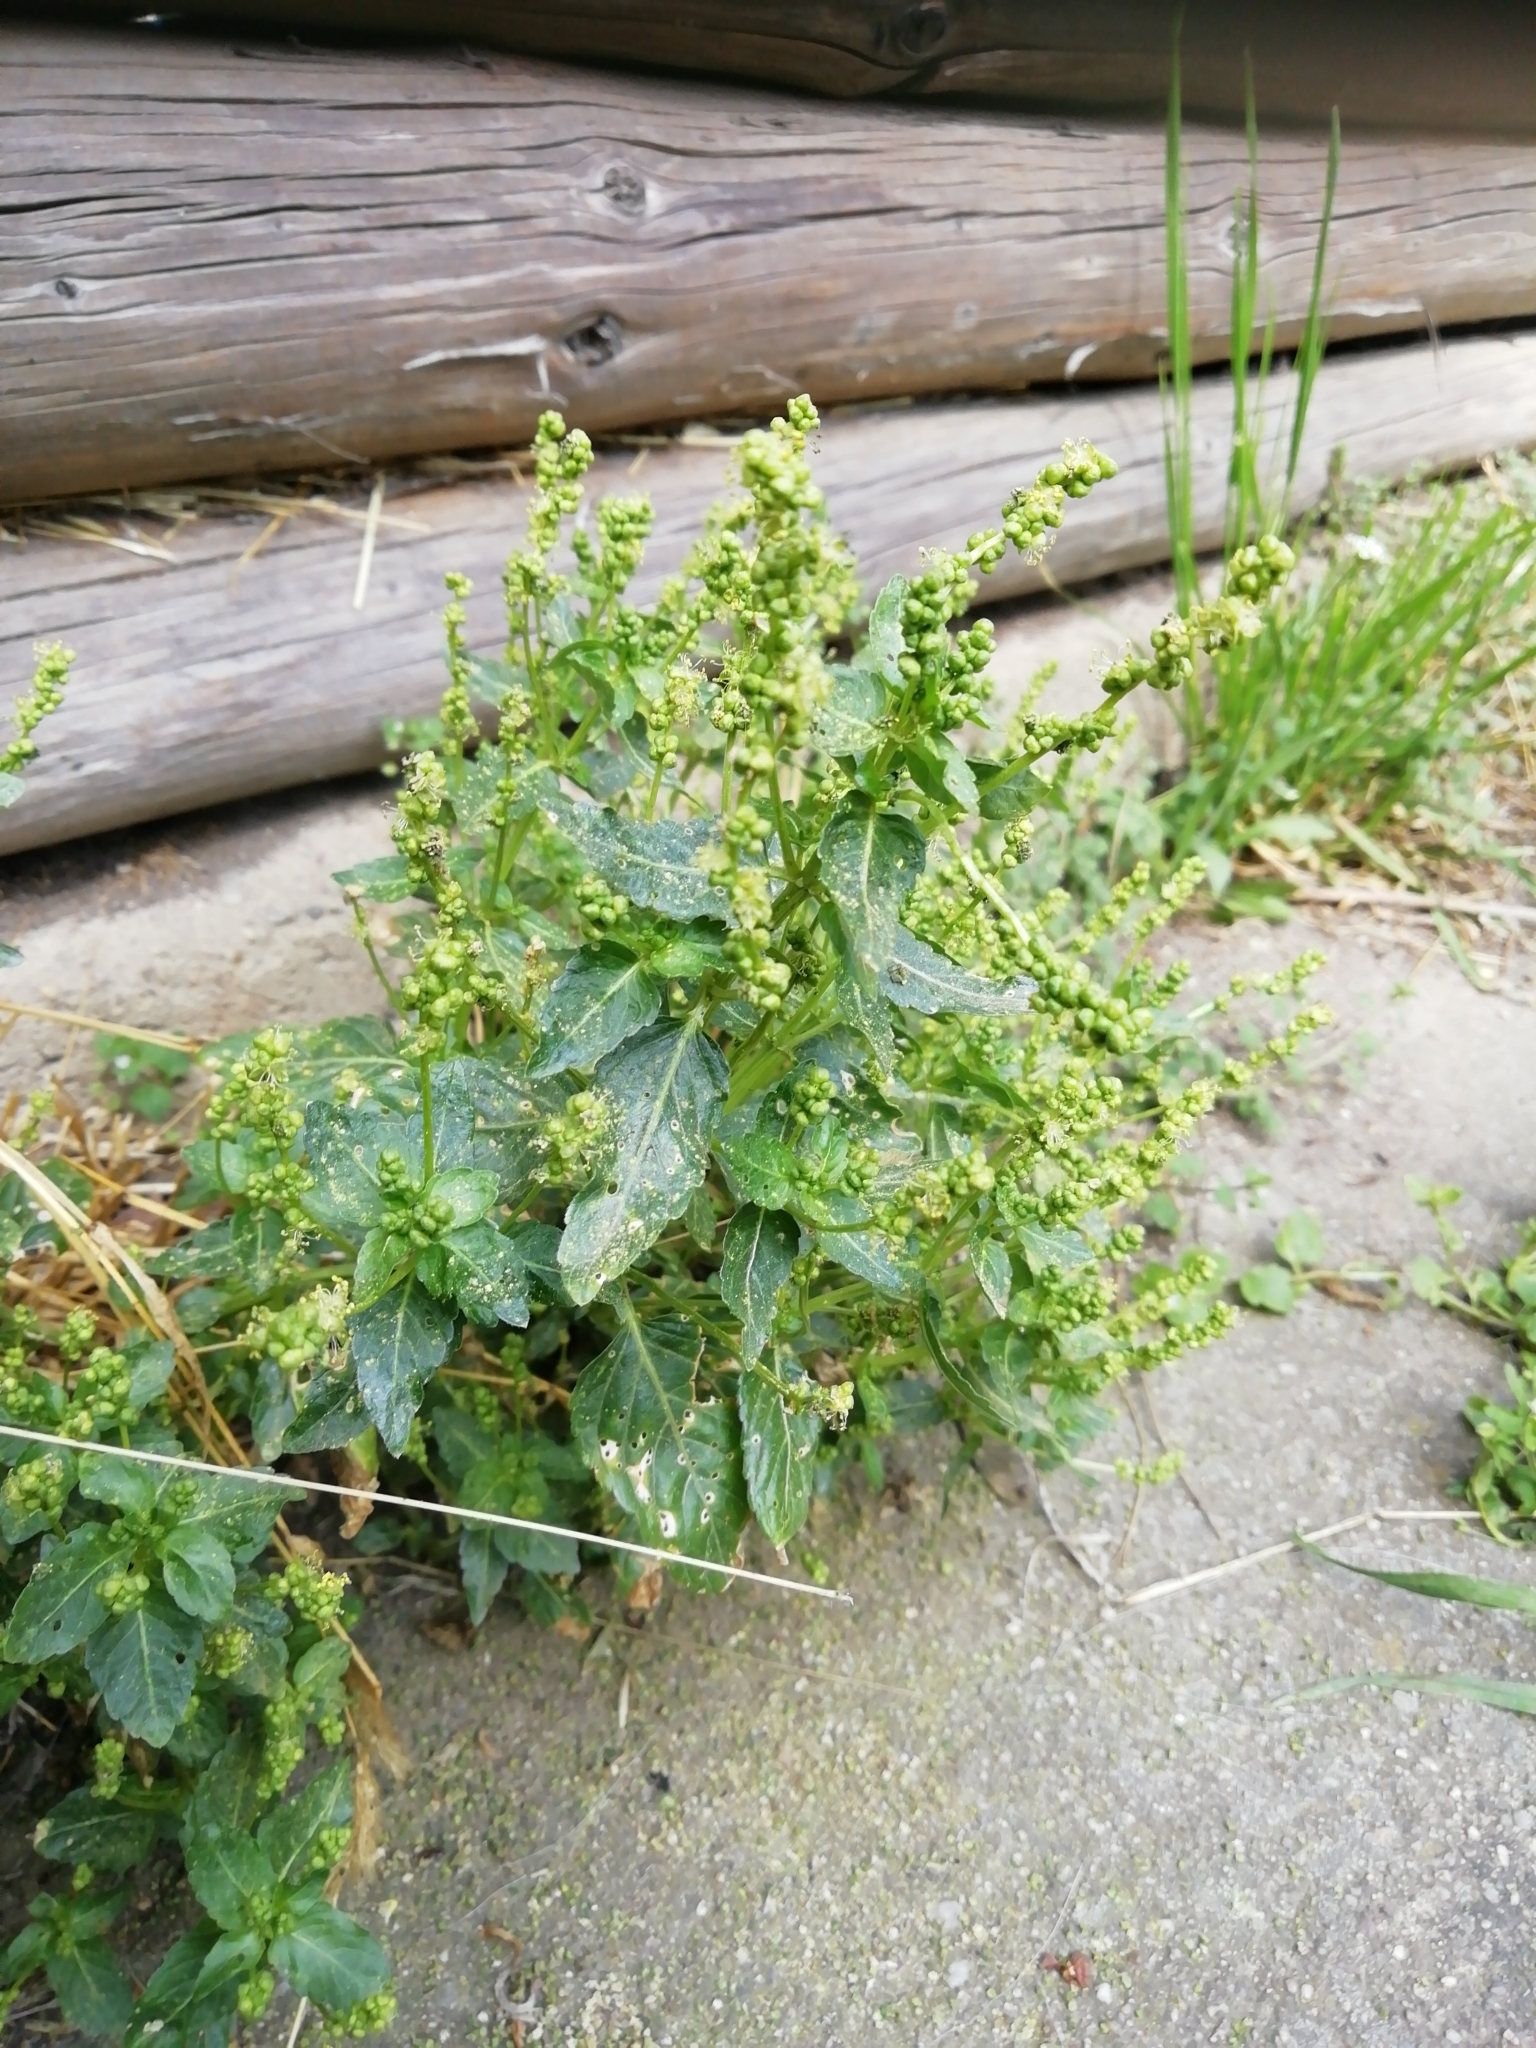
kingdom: Plantae
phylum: Tracheophyta
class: Magnoliopsida
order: Malpighiales
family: Euphorbiaceae
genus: Mercurialis
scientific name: Mercurialis annua
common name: Annual mercury
